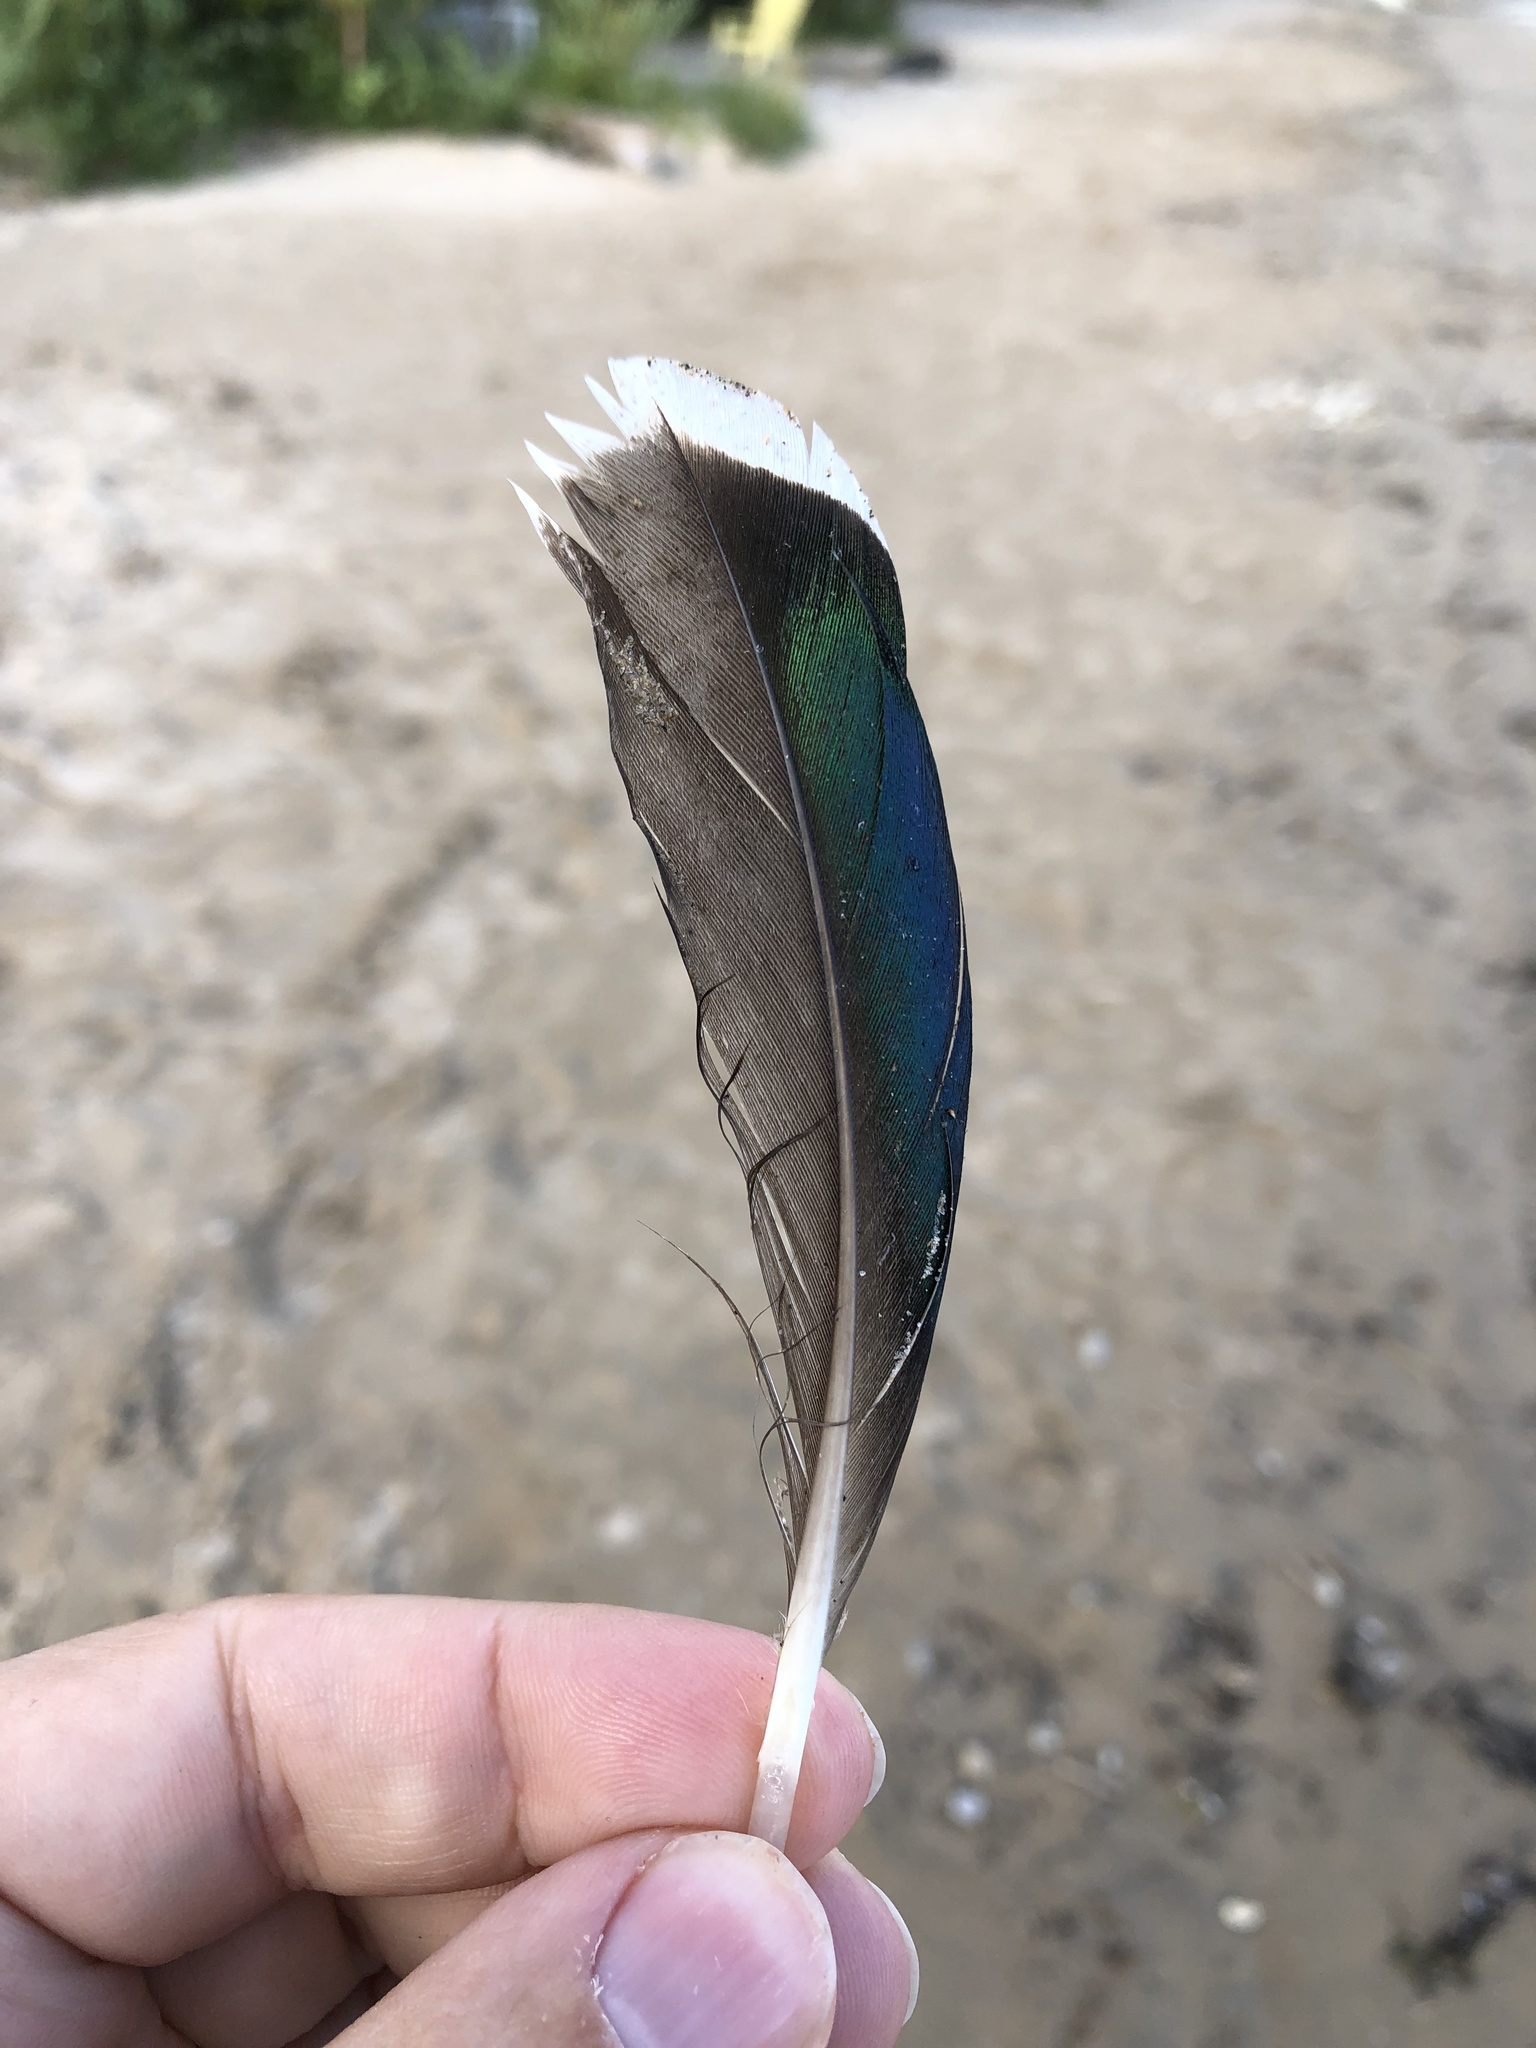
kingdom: Animalia
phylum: Chordata
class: Aves
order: Anseriformes
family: Anatidae
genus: Anas
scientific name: Anas platyrhynchos
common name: Mallard
